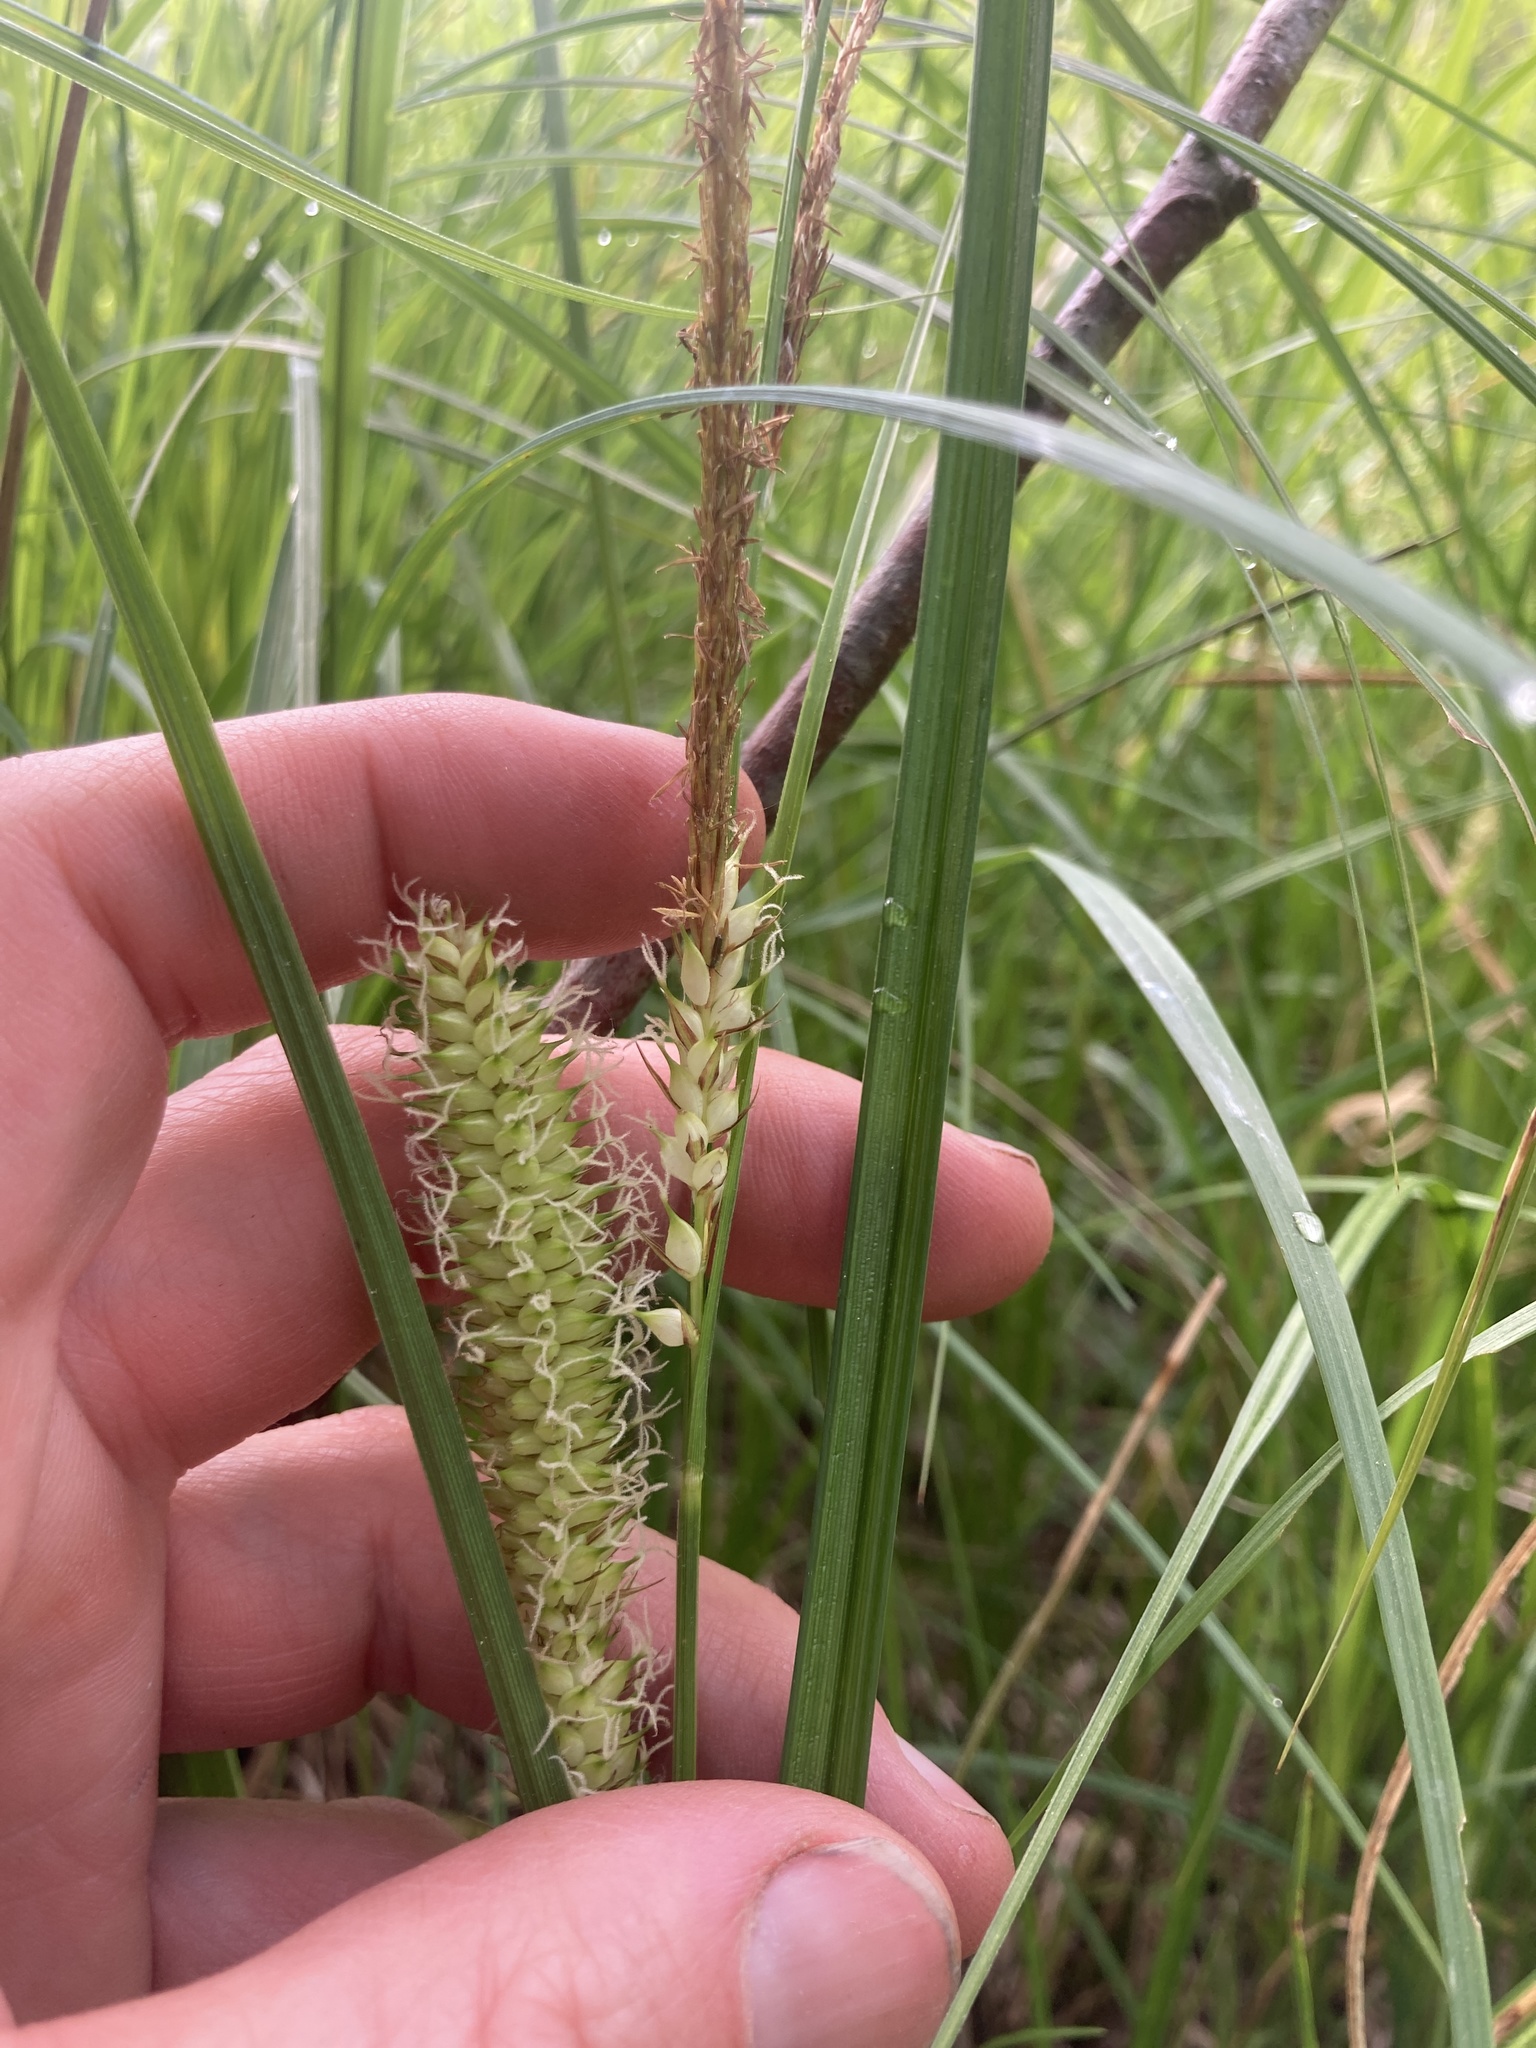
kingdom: Plantae
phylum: Tracheophyta
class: Liliopsida
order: Poales
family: Cyperaceae
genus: Carex
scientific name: Carex utriculata
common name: Beaked sedge
